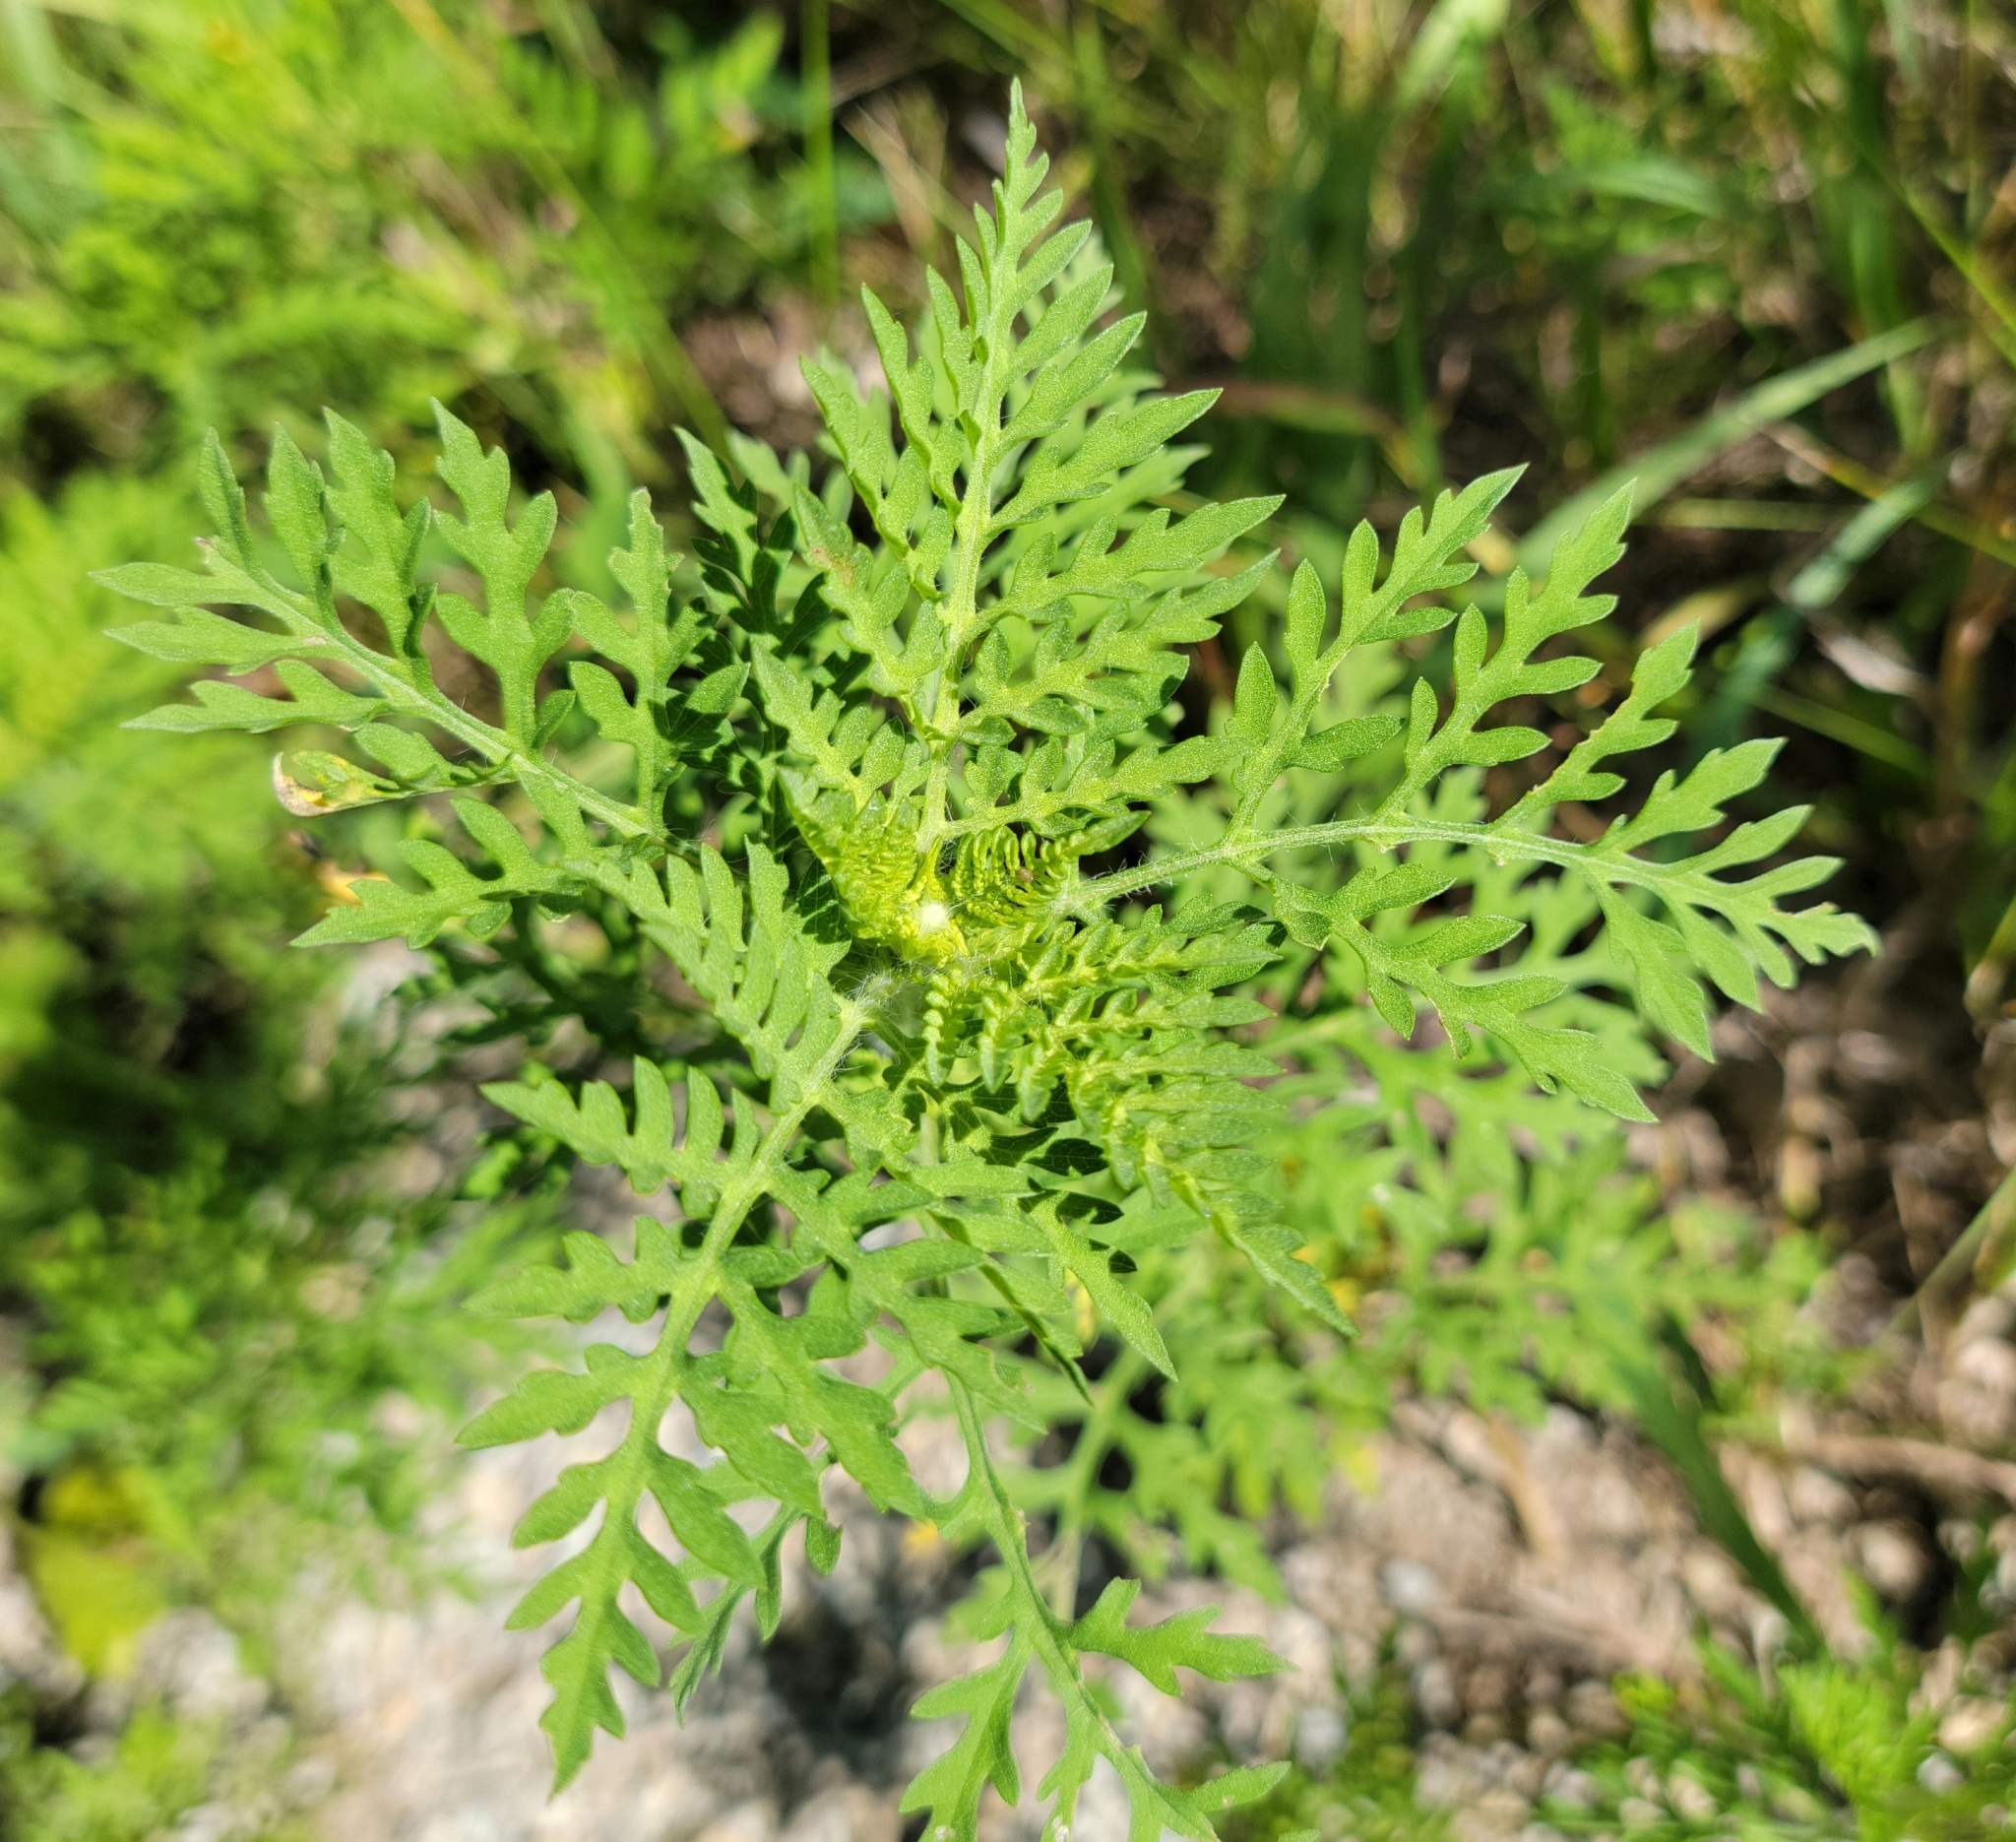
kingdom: Plantae
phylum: Tracheophyta
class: Magnoliopsida
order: Asterales
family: Asteraceae
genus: Ambrosia
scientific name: Ambrosia artemisiifolia
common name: Annual ragweed
